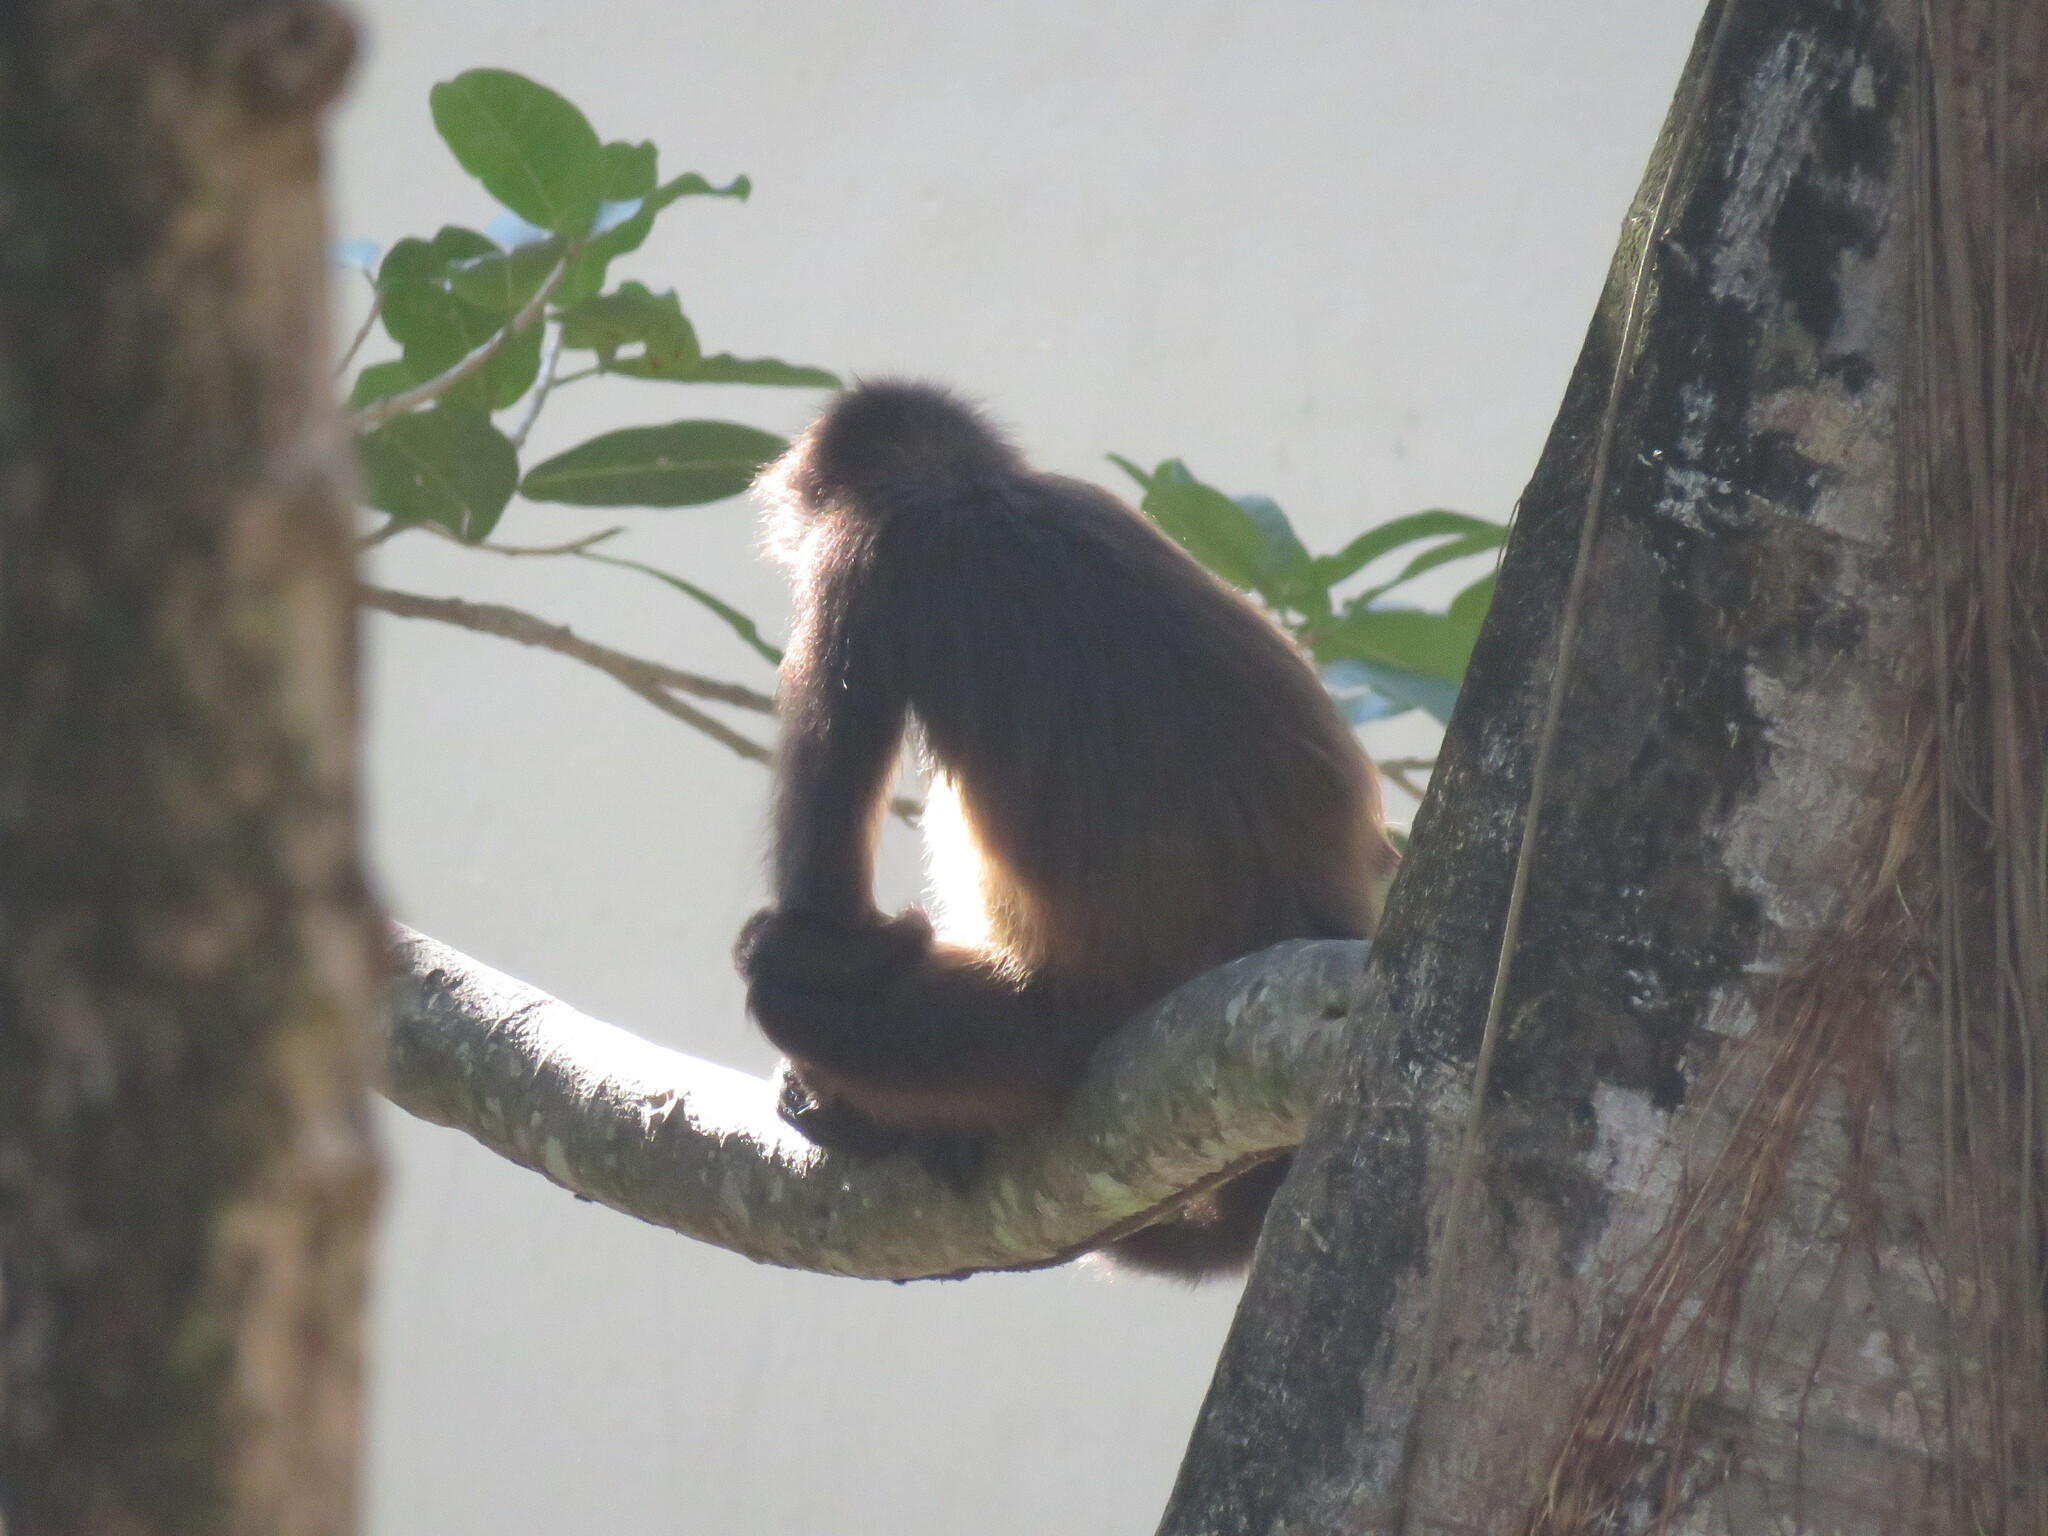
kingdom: Animalia
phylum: Chordata
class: Mammalia
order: Primates
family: Atelidae
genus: Ateles
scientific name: Ateles geoffroyi
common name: Black-handed spider monkey
